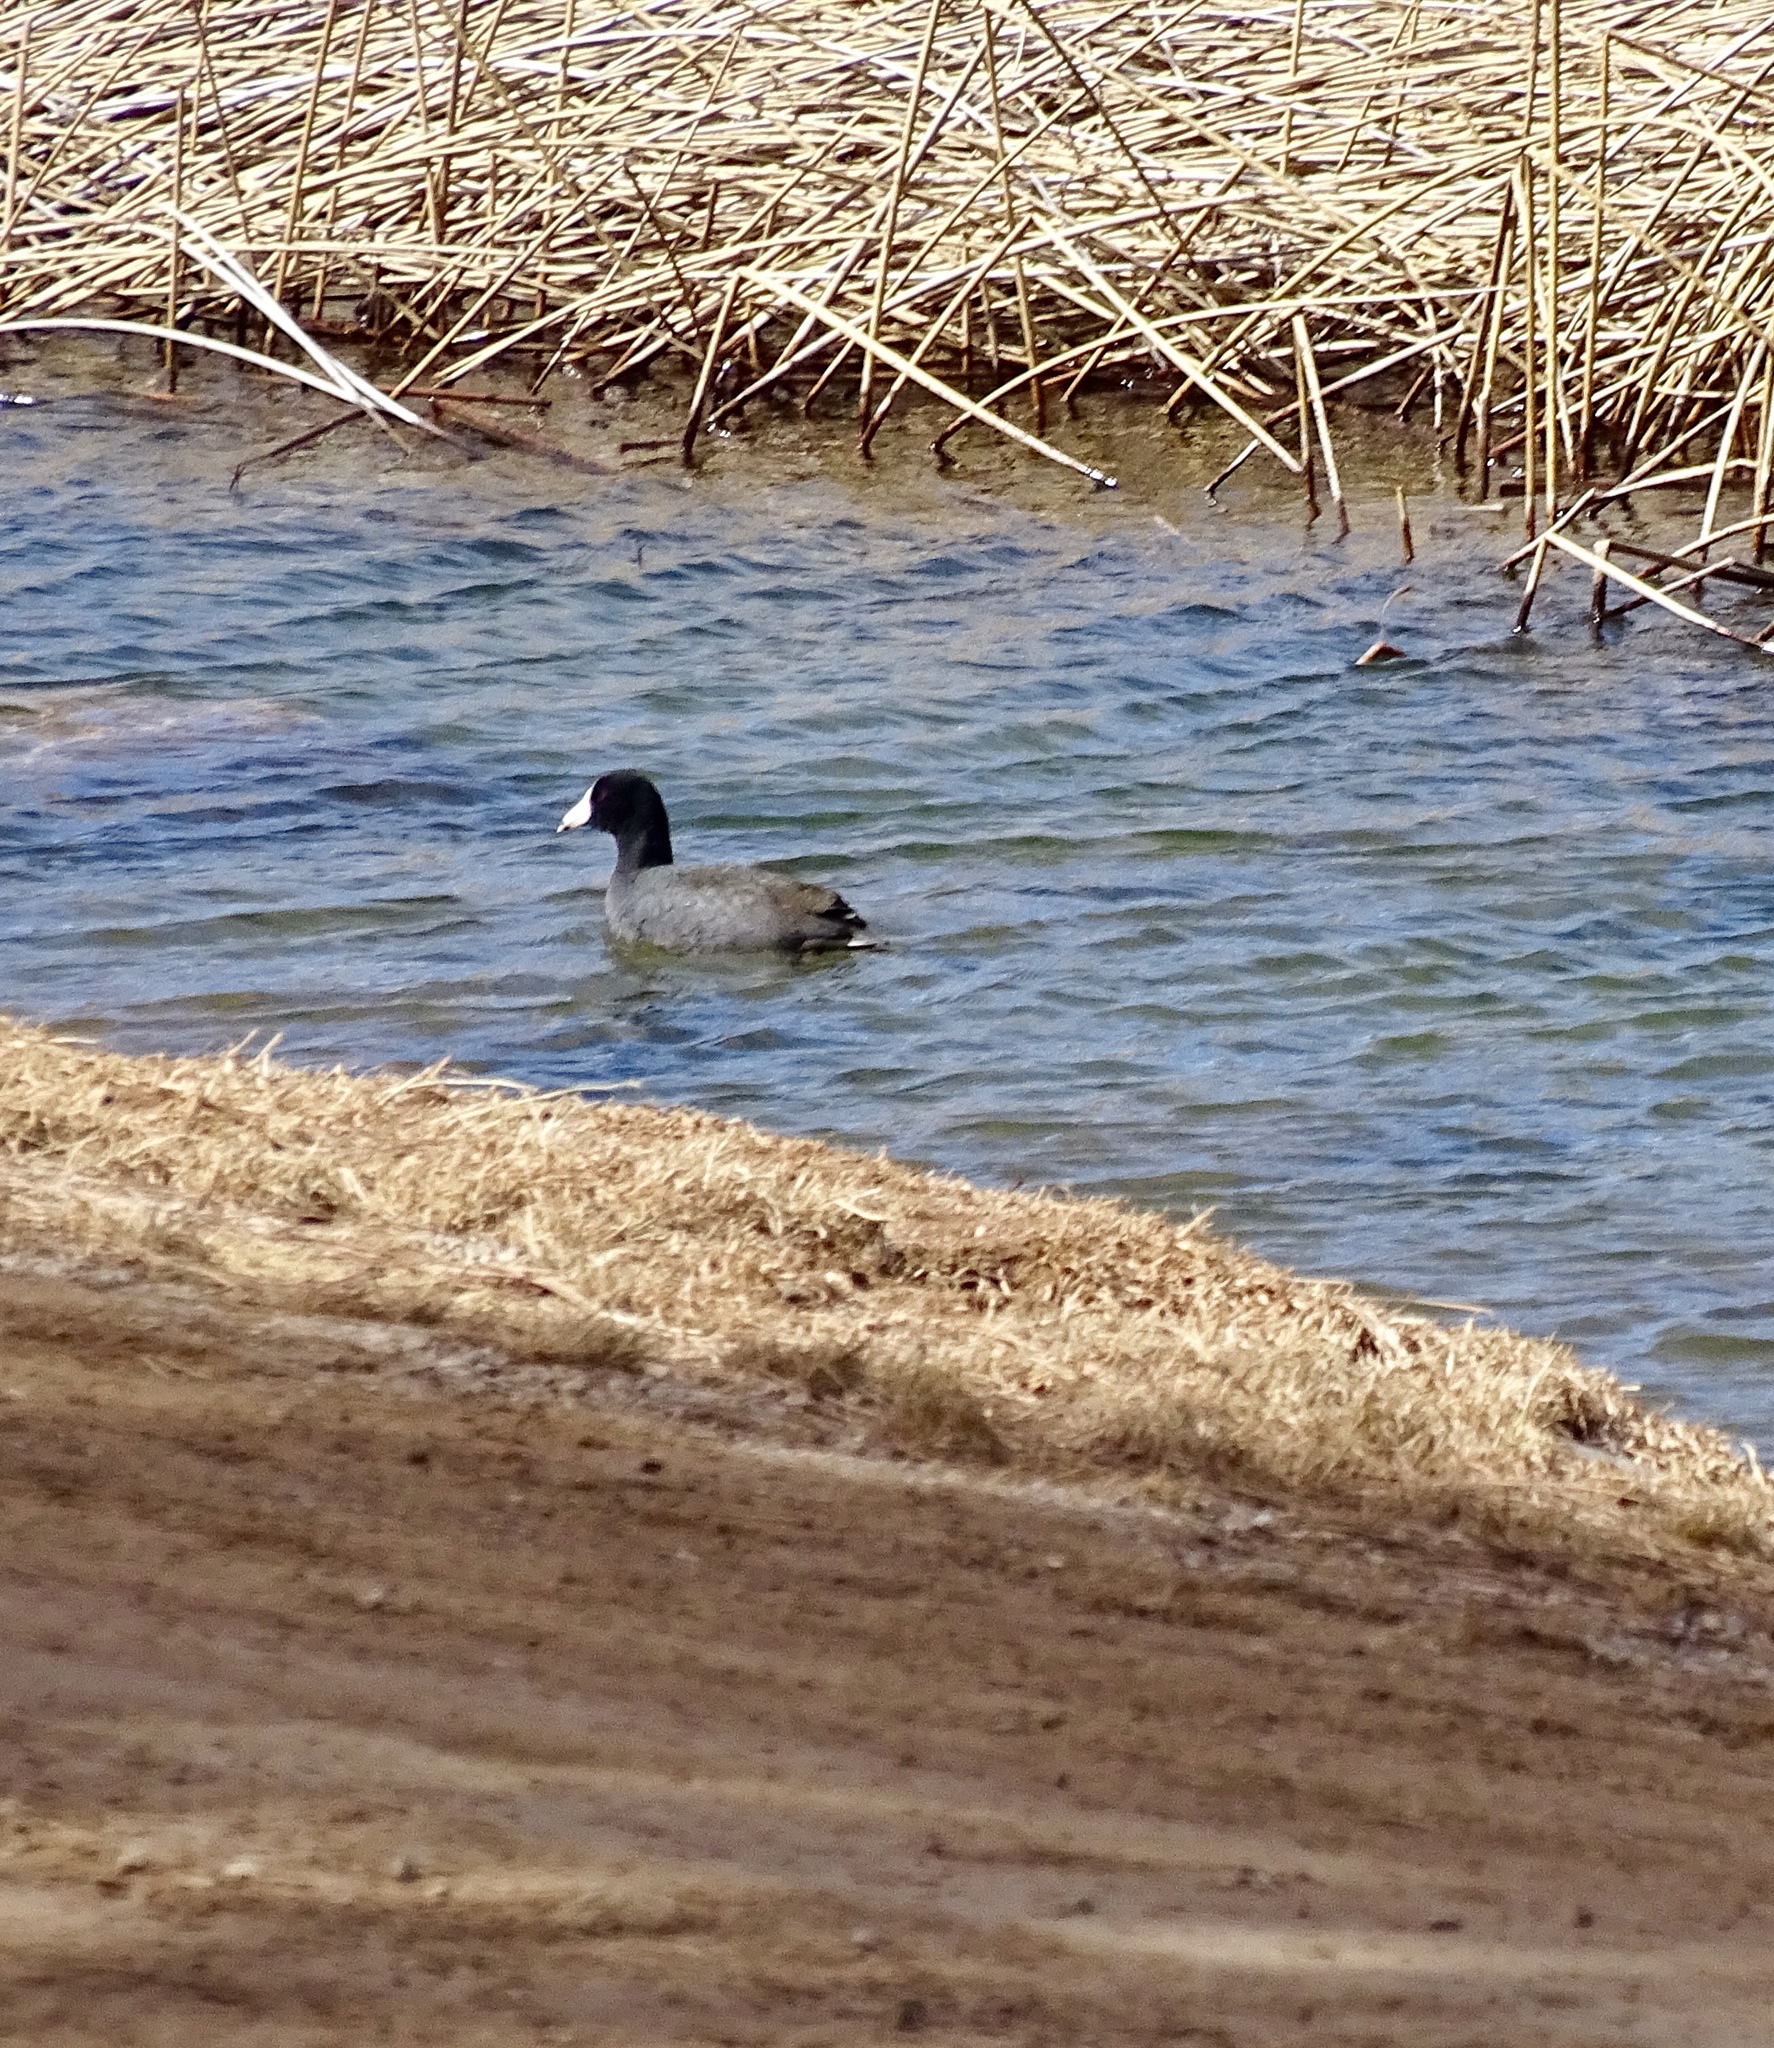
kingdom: Animalia
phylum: Chordata
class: Aves
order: Gruiformes
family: Rallidae
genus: Fulica
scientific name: Fulica americana
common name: American coot
